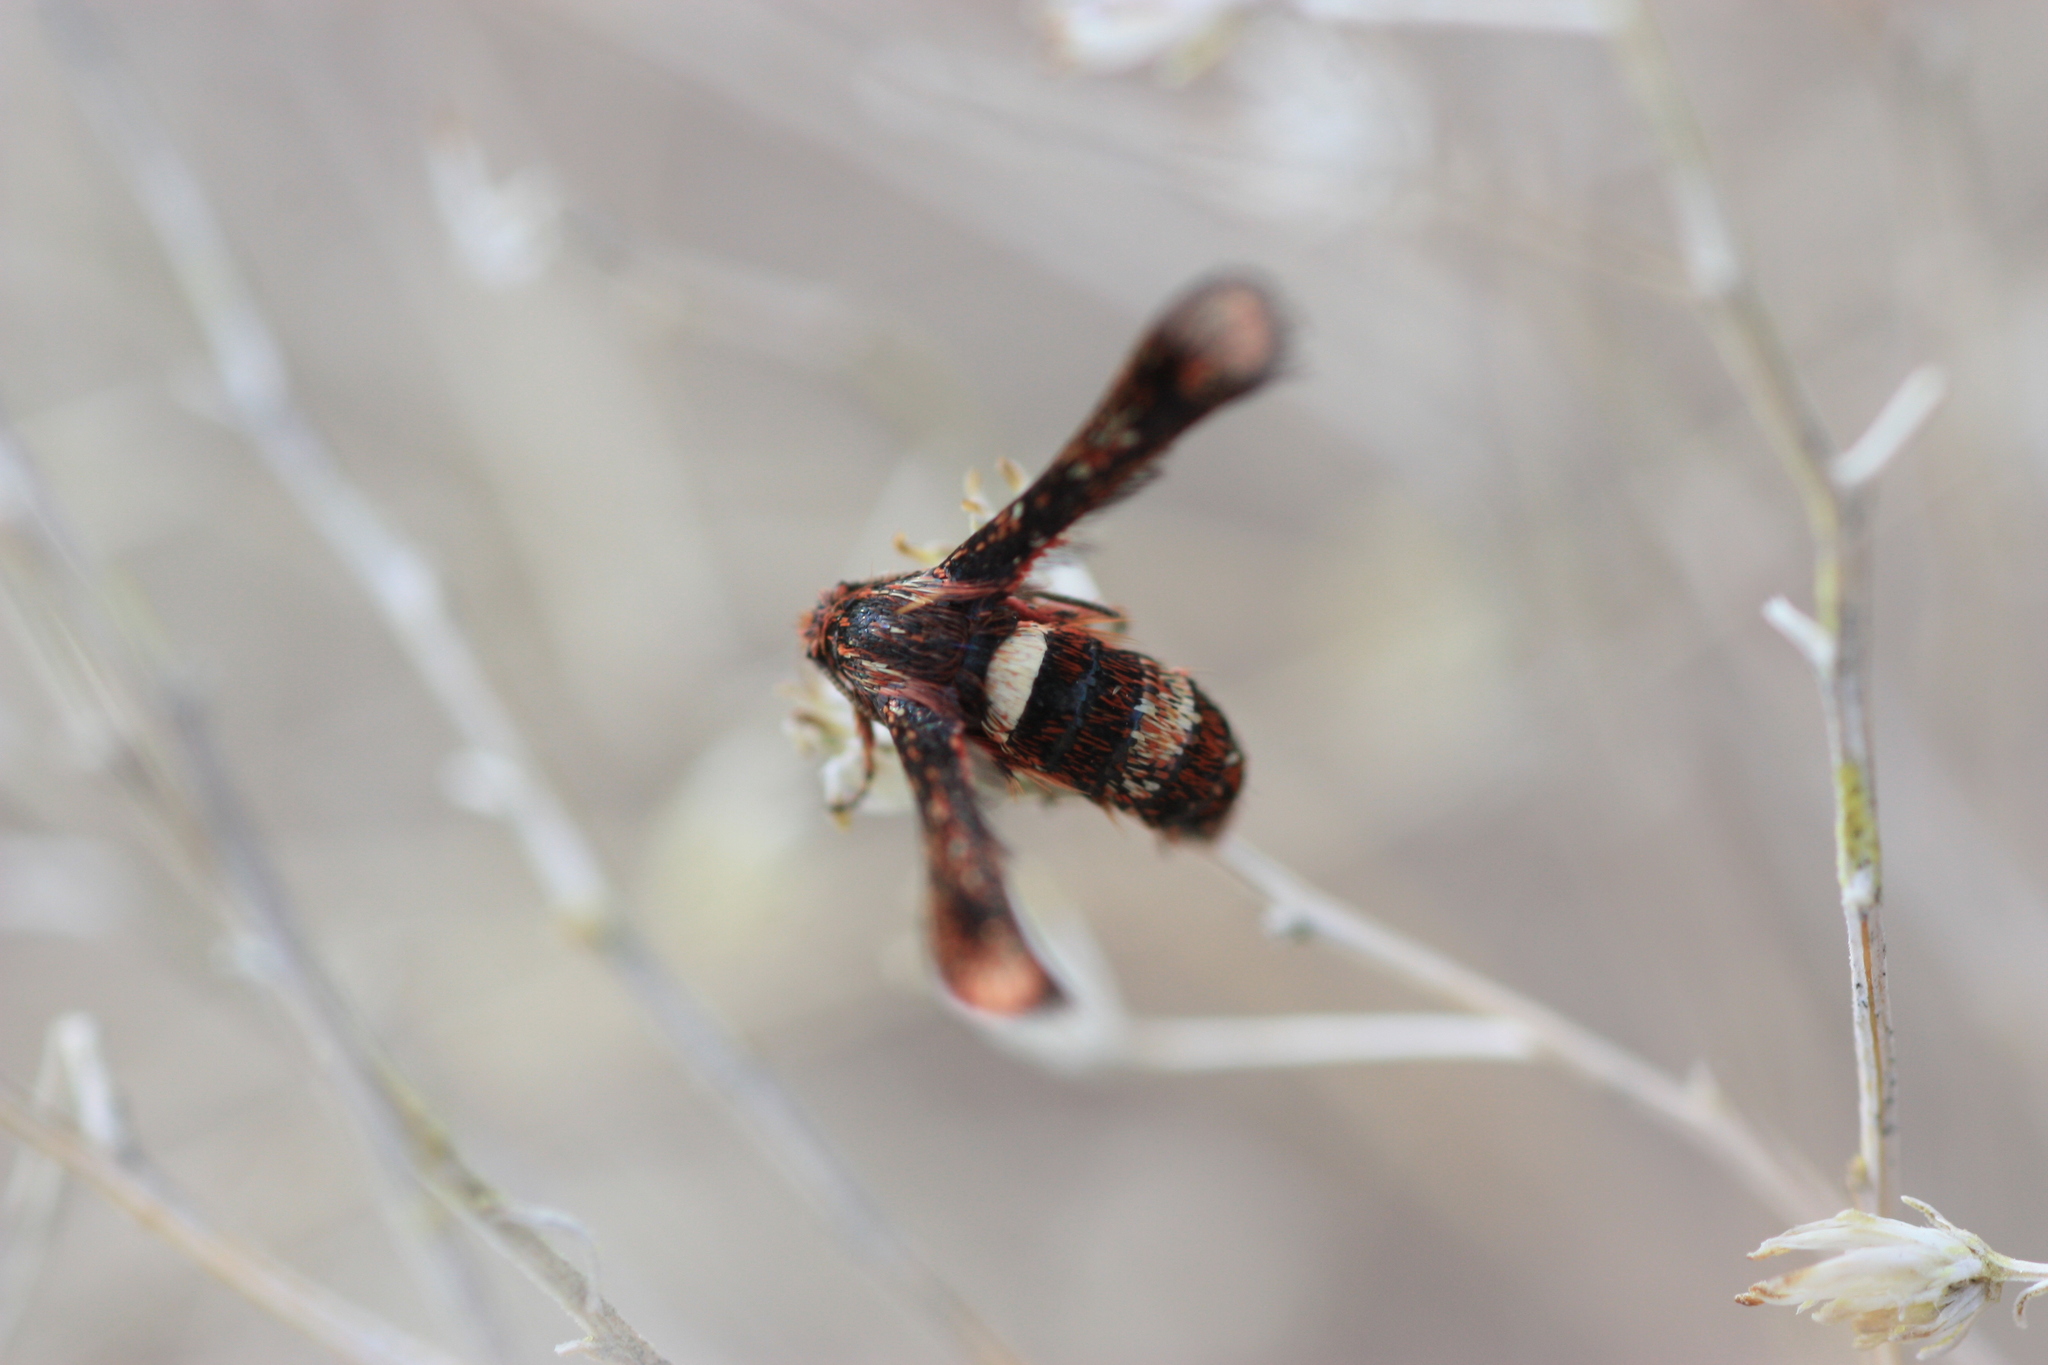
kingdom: Animalia
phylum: Arthropoda
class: Insecta
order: Lepidoptera
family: Sesiidae
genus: Zenodoxus
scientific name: Zenodoxus rubens
